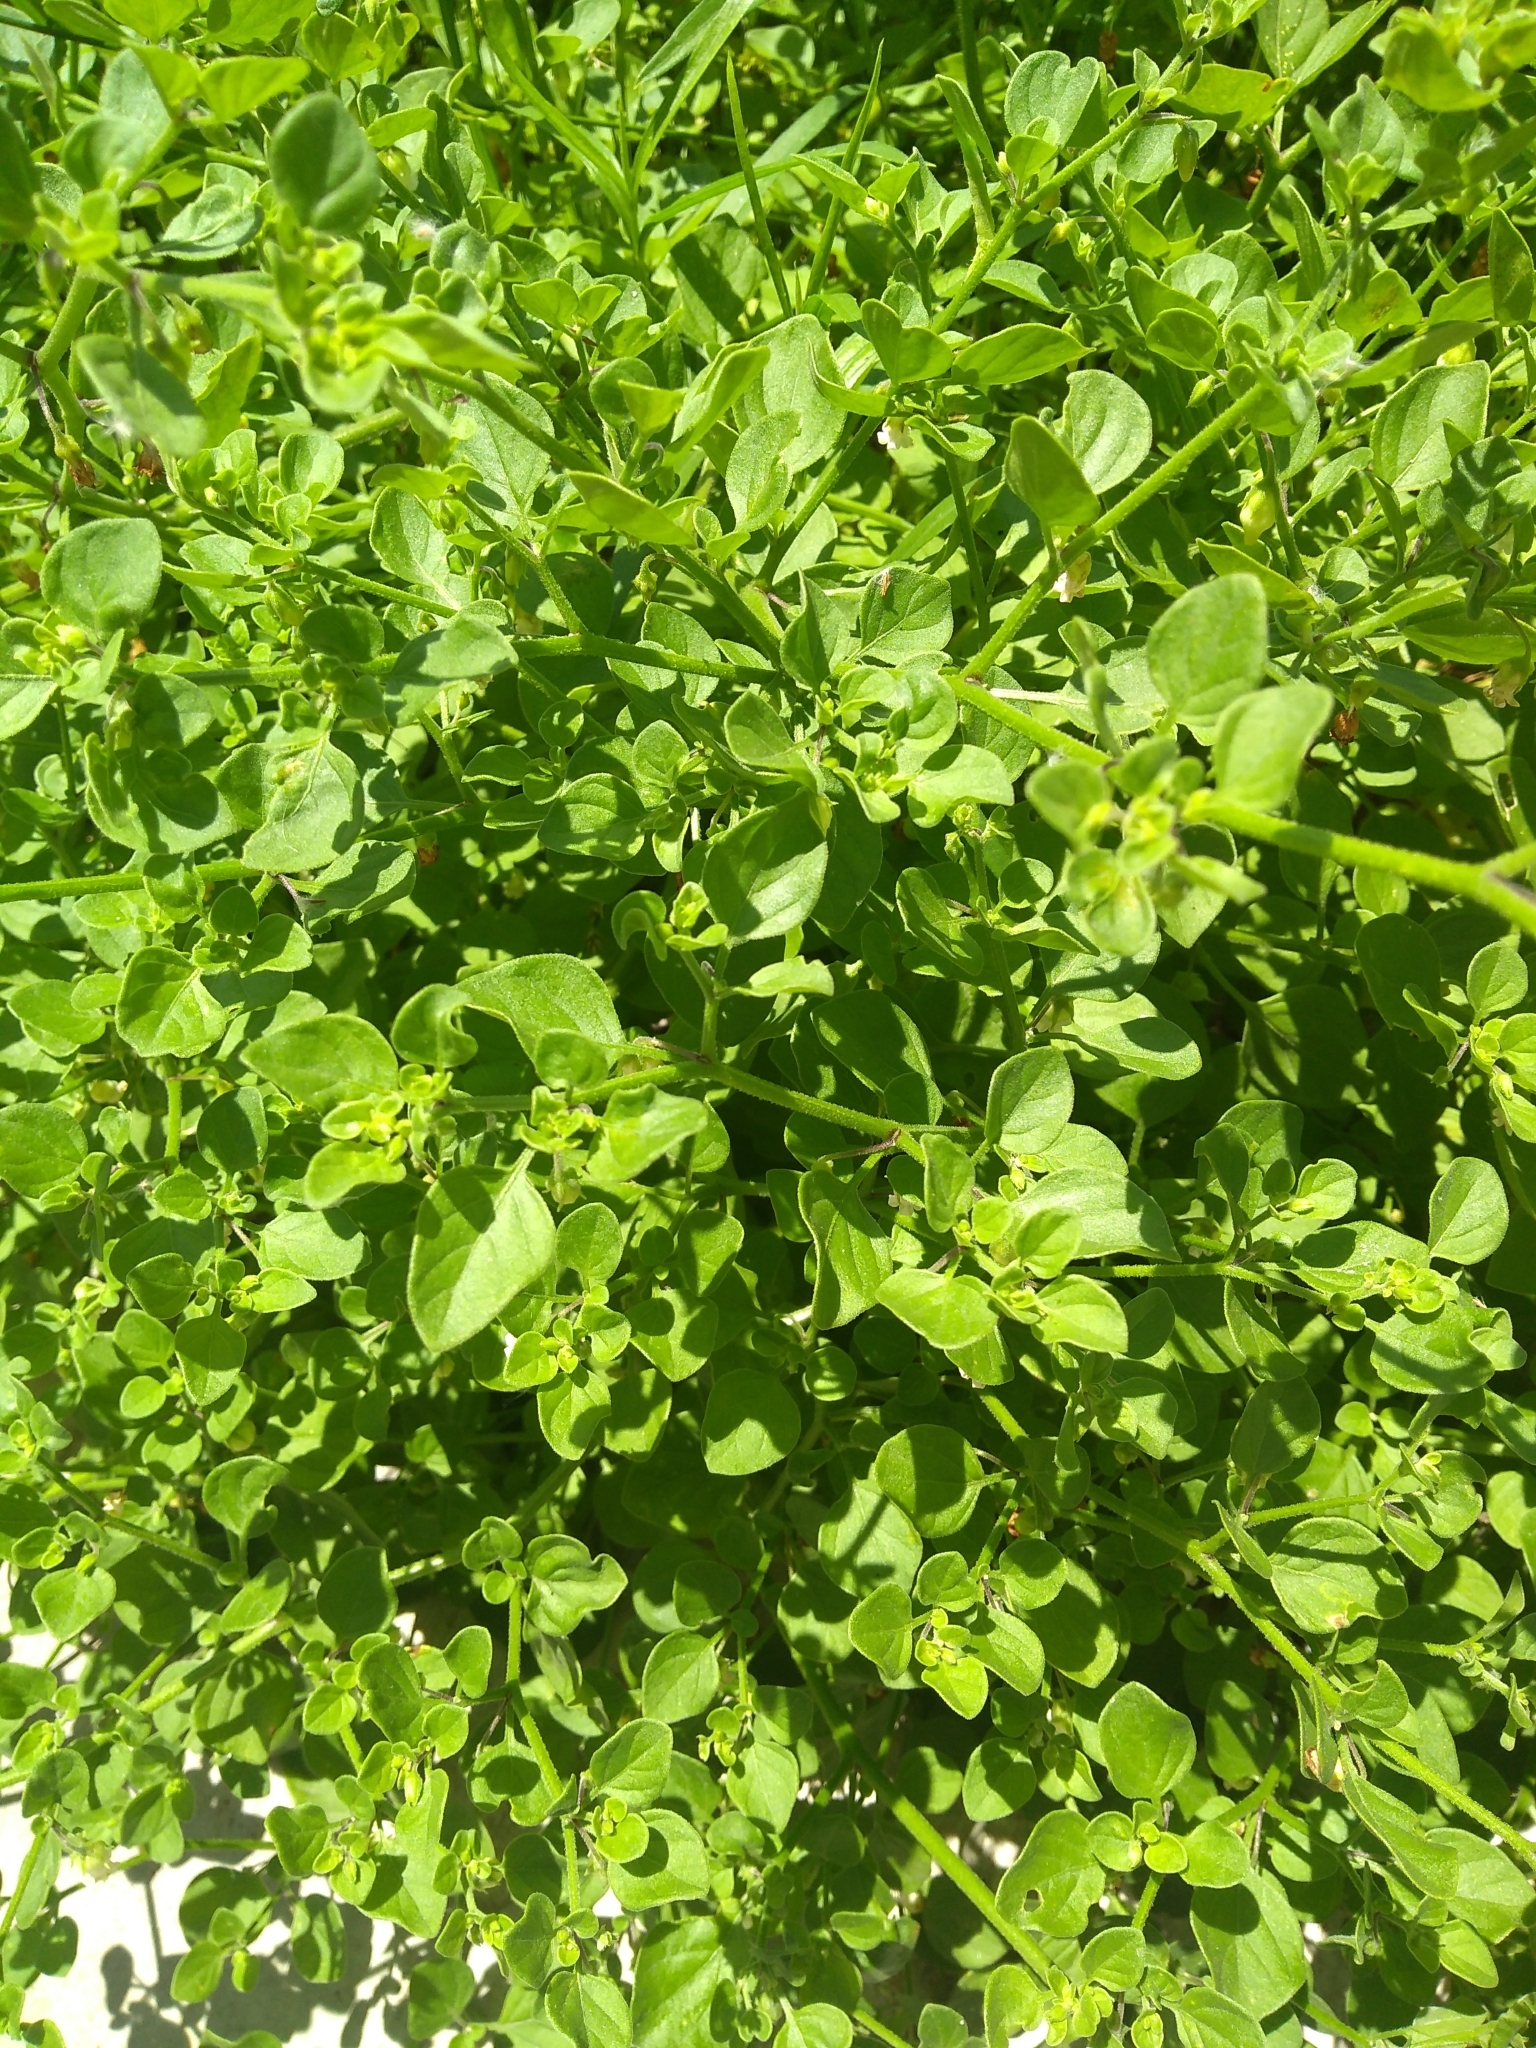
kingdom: Plantae
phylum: Tracheophyta
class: Magnoliopsida
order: Solanales
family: Solanaceae
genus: Salpichroa
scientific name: Salpichroa origanifolia
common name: Lily-of-the-valley-vine
